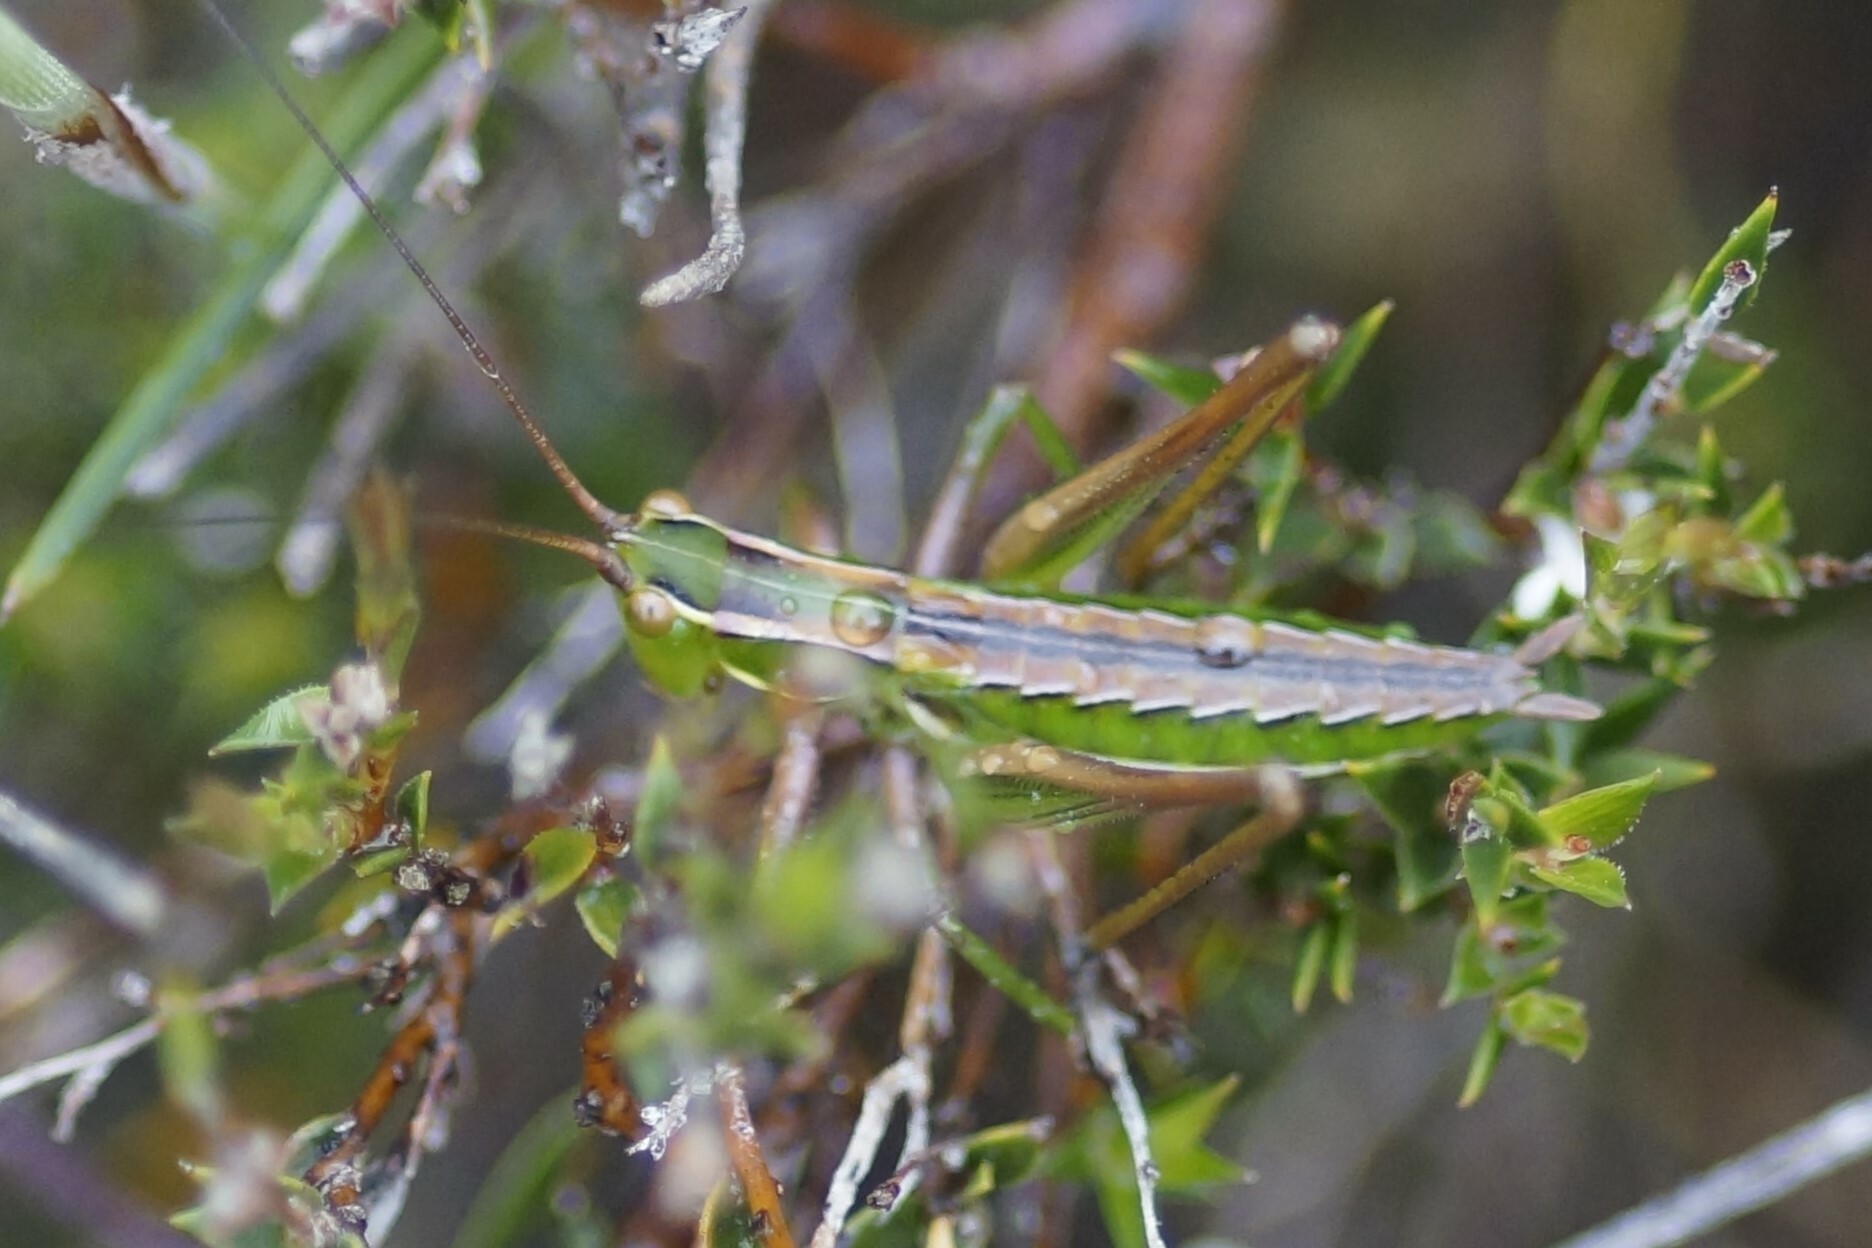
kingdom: Animalia
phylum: Arthropoda
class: Insecta
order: Orthoptera
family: Tettigoniidae
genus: Metaballus
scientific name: Metaballus sagaeformis
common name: Adelaide marauding katydid
